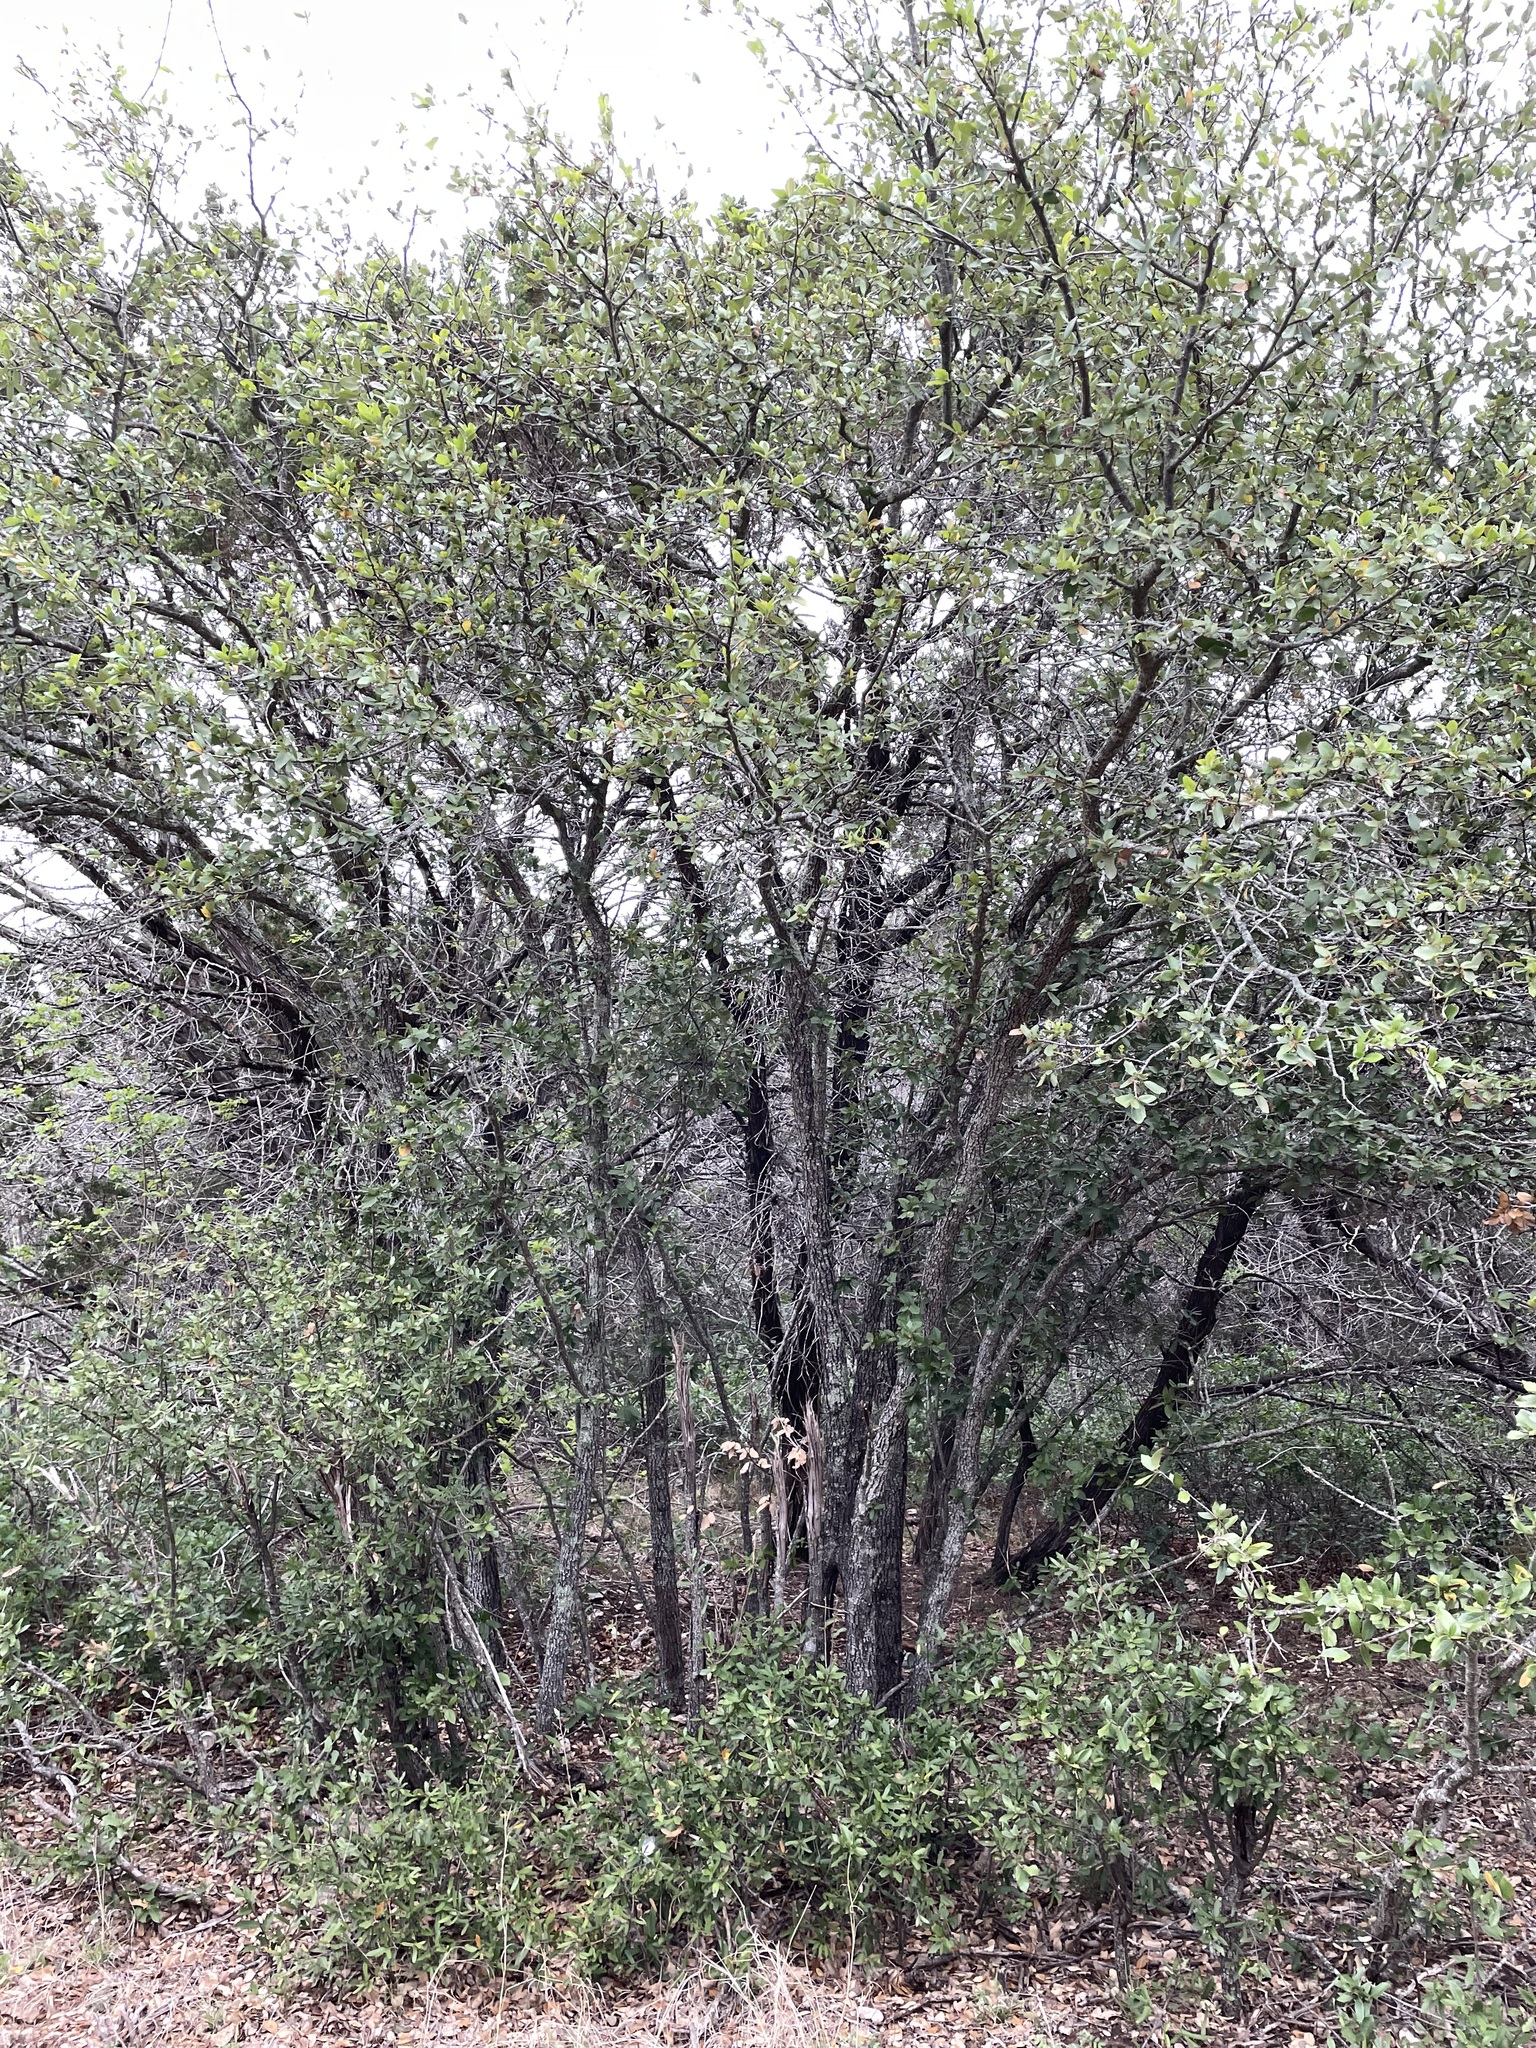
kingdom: Plantae
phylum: Tracheophyta
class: Magnoliopsida
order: Fagales
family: Fagaceae
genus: Quercus
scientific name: Quercus fusiformis
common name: Texas live oak
